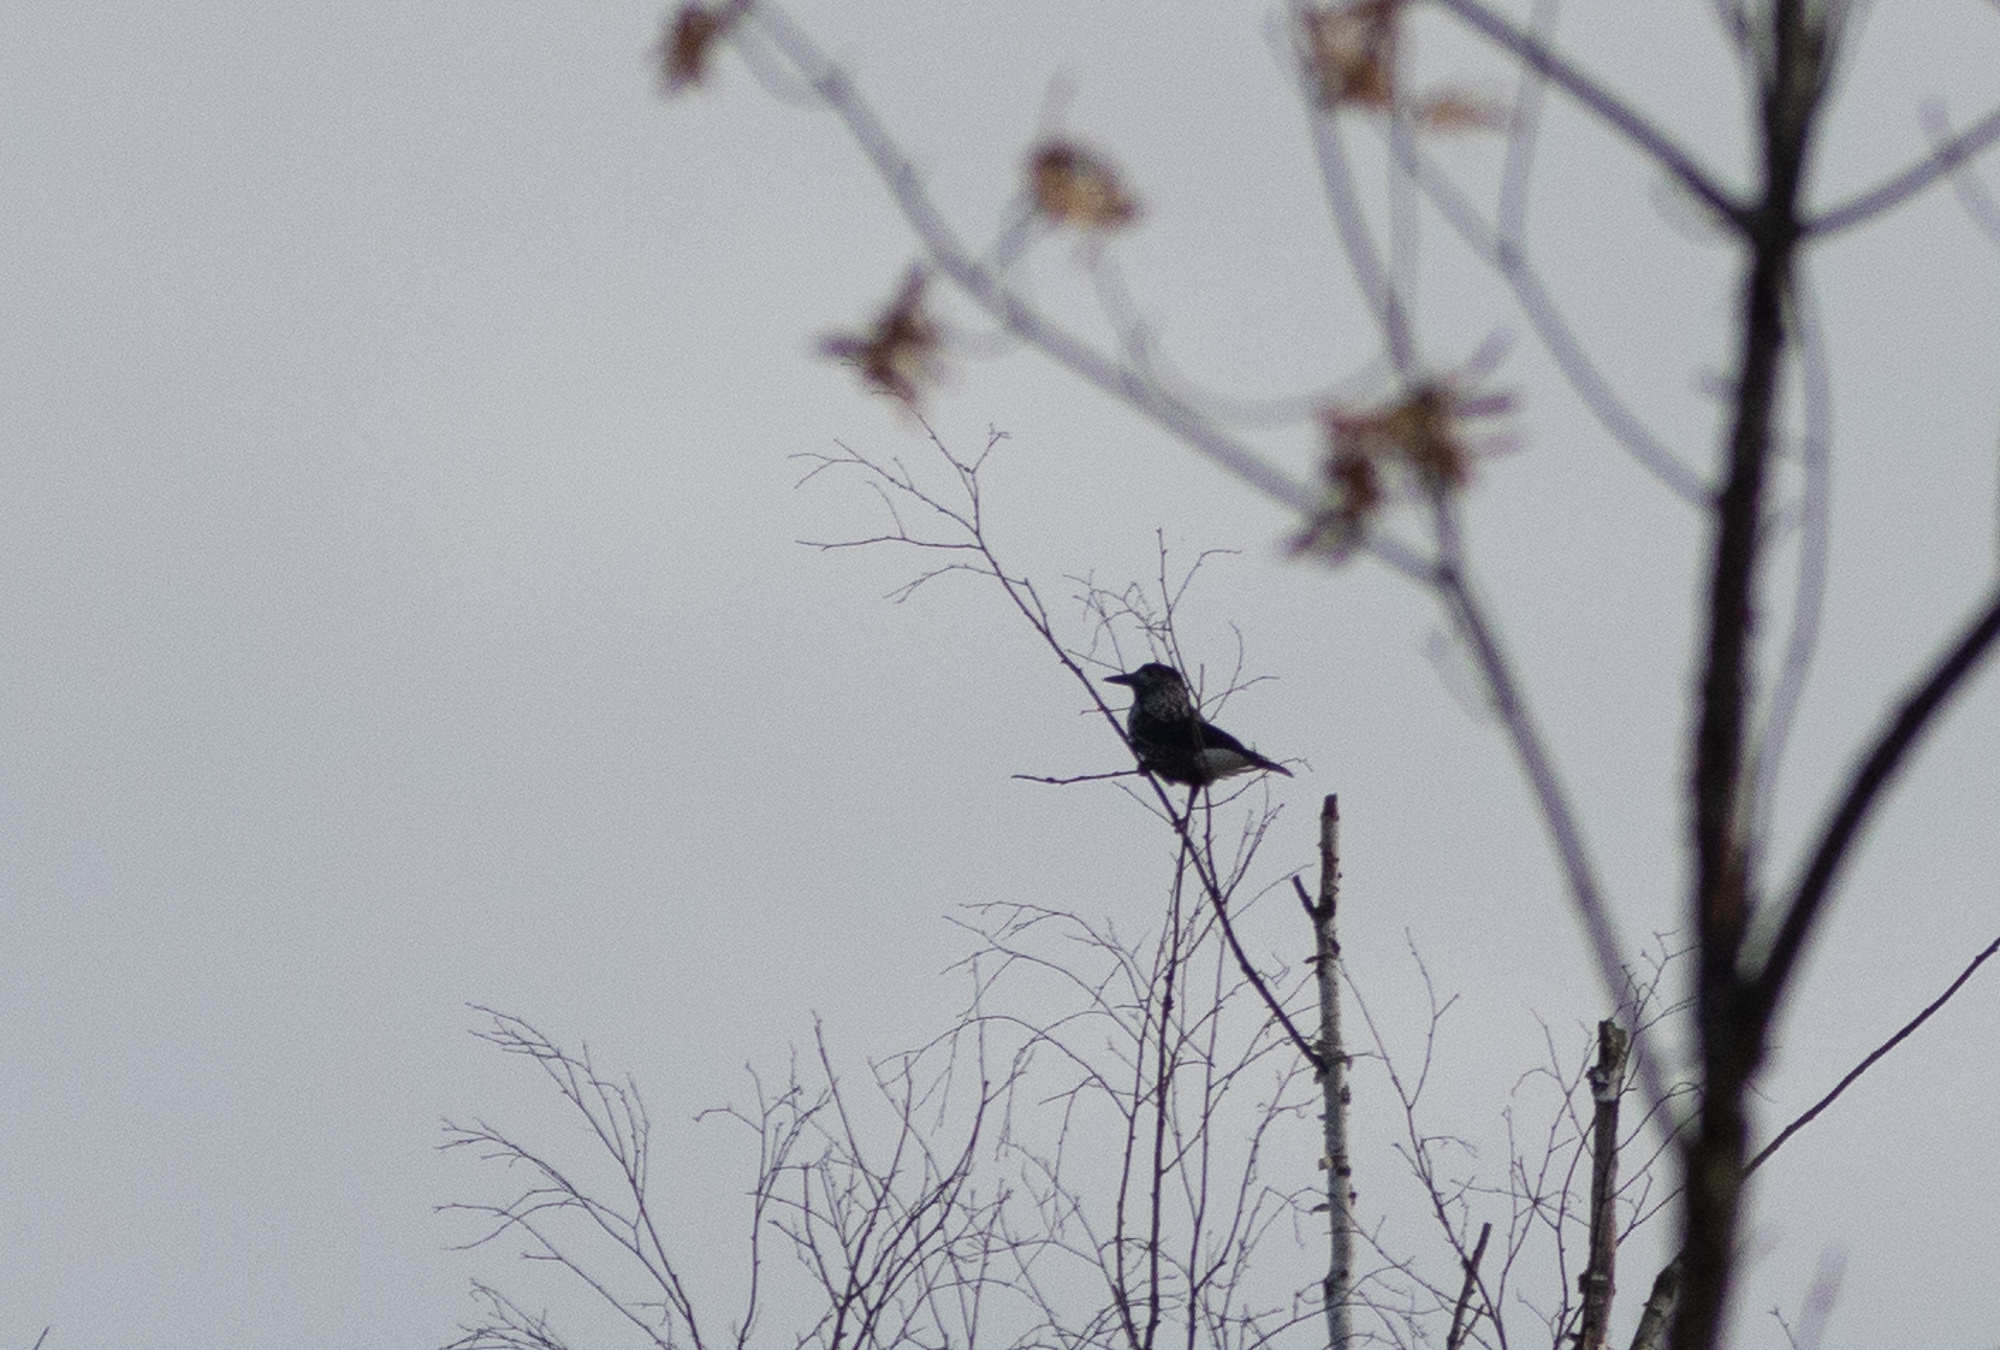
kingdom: Animalia
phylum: Chordata
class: Aves
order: Passeriformes
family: Corvidae
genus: Nucifraga
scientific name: Nucifraga caryocatactes
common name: Spotted nutcracker
